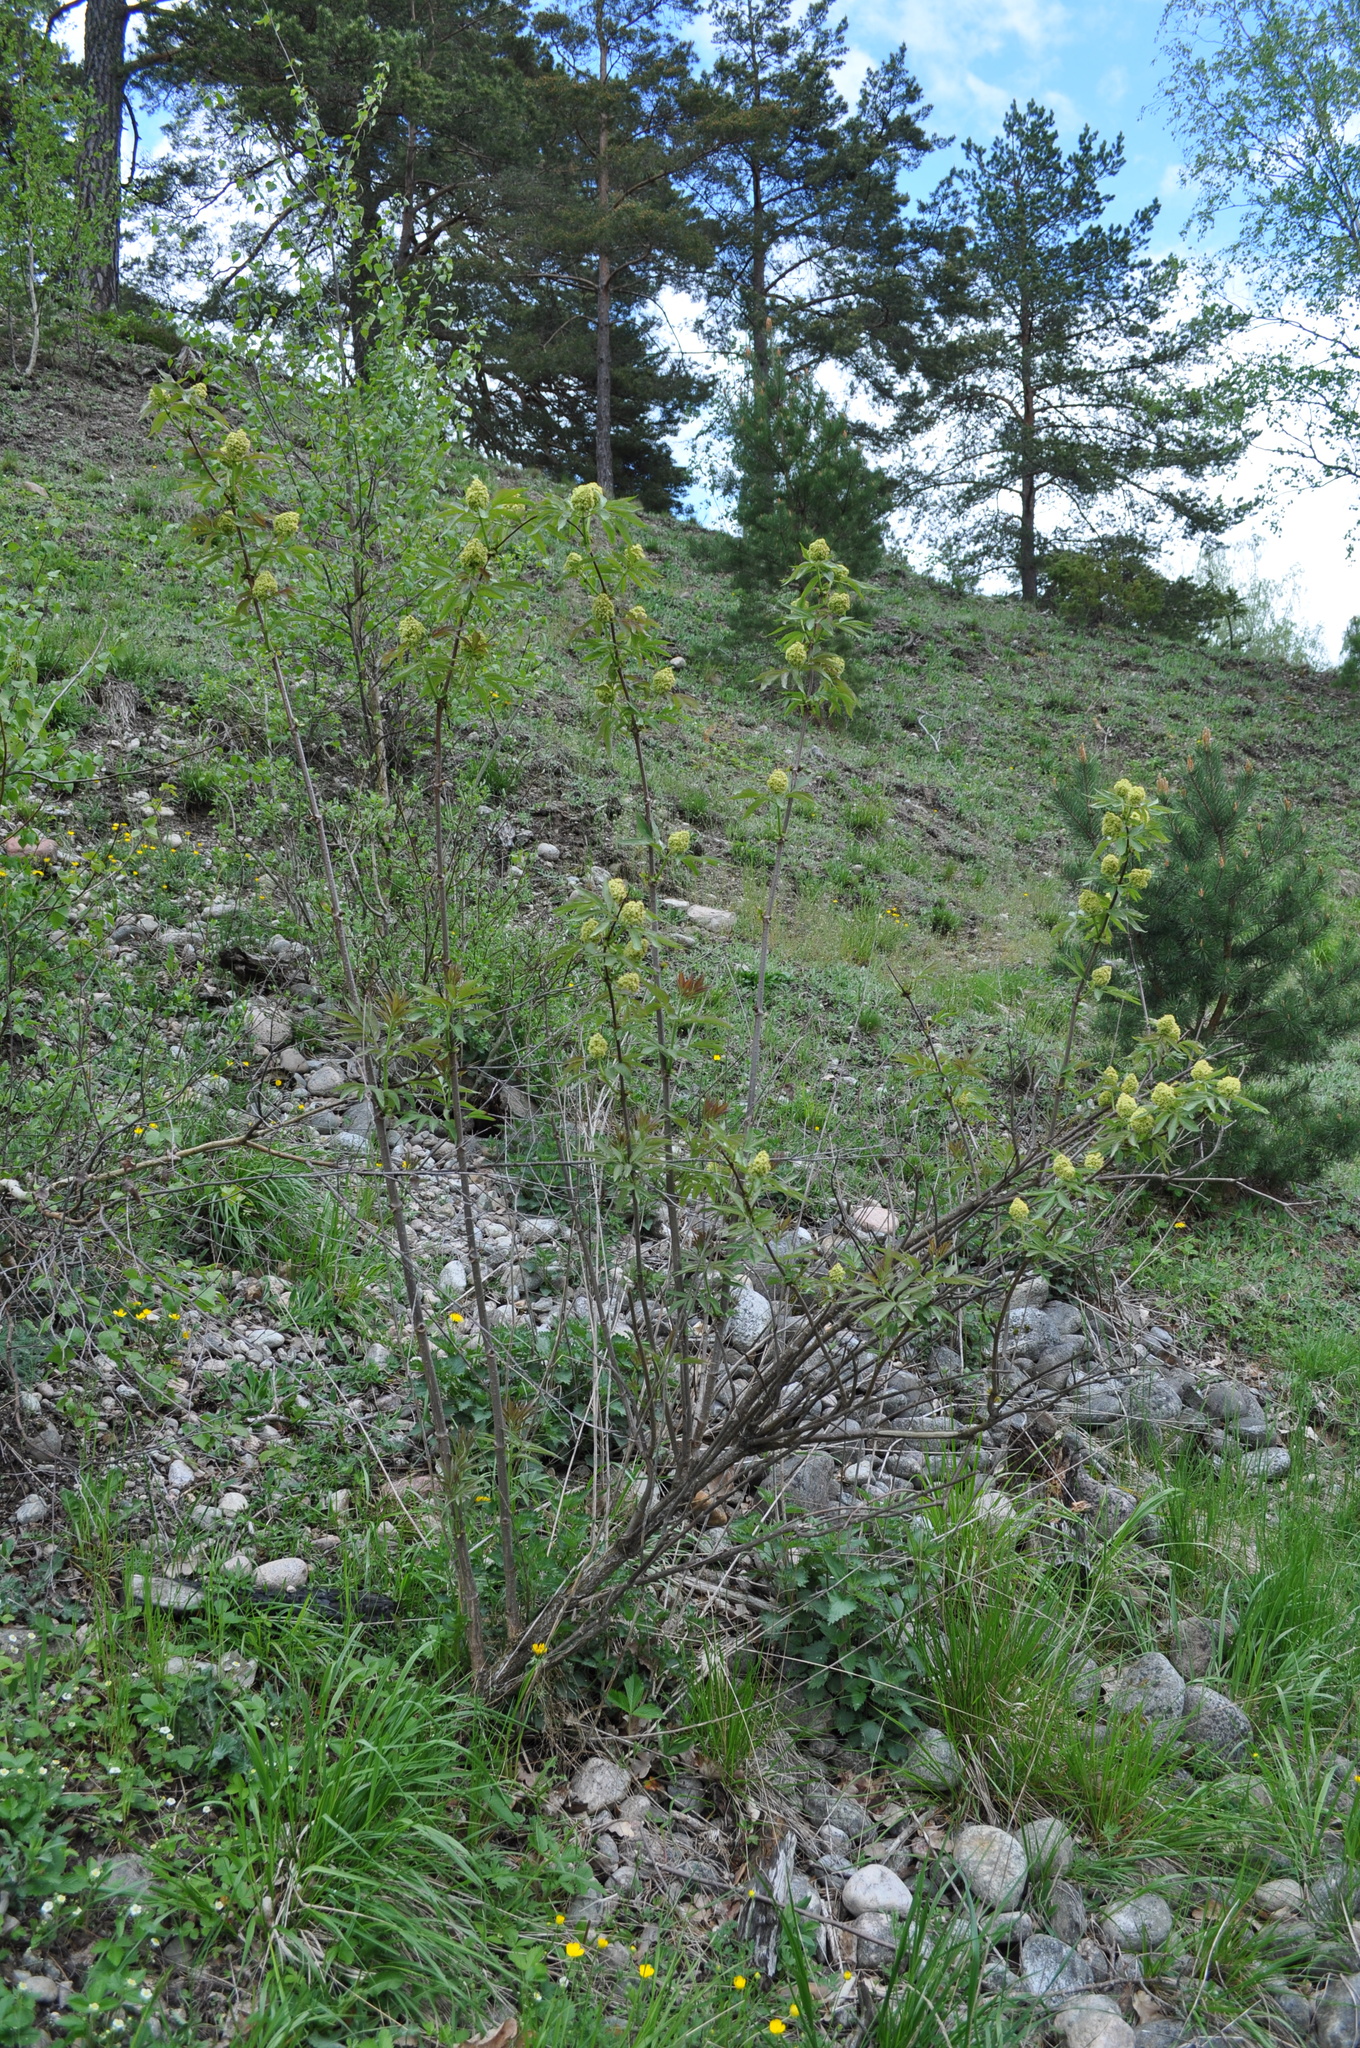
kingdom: Plantae
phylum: Tracheophyta
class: Magnoliopsida
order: Dipsacales
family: Viburnaceae
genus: Sambucus
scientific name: Sambucus racemosa
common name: Red-berried elder
